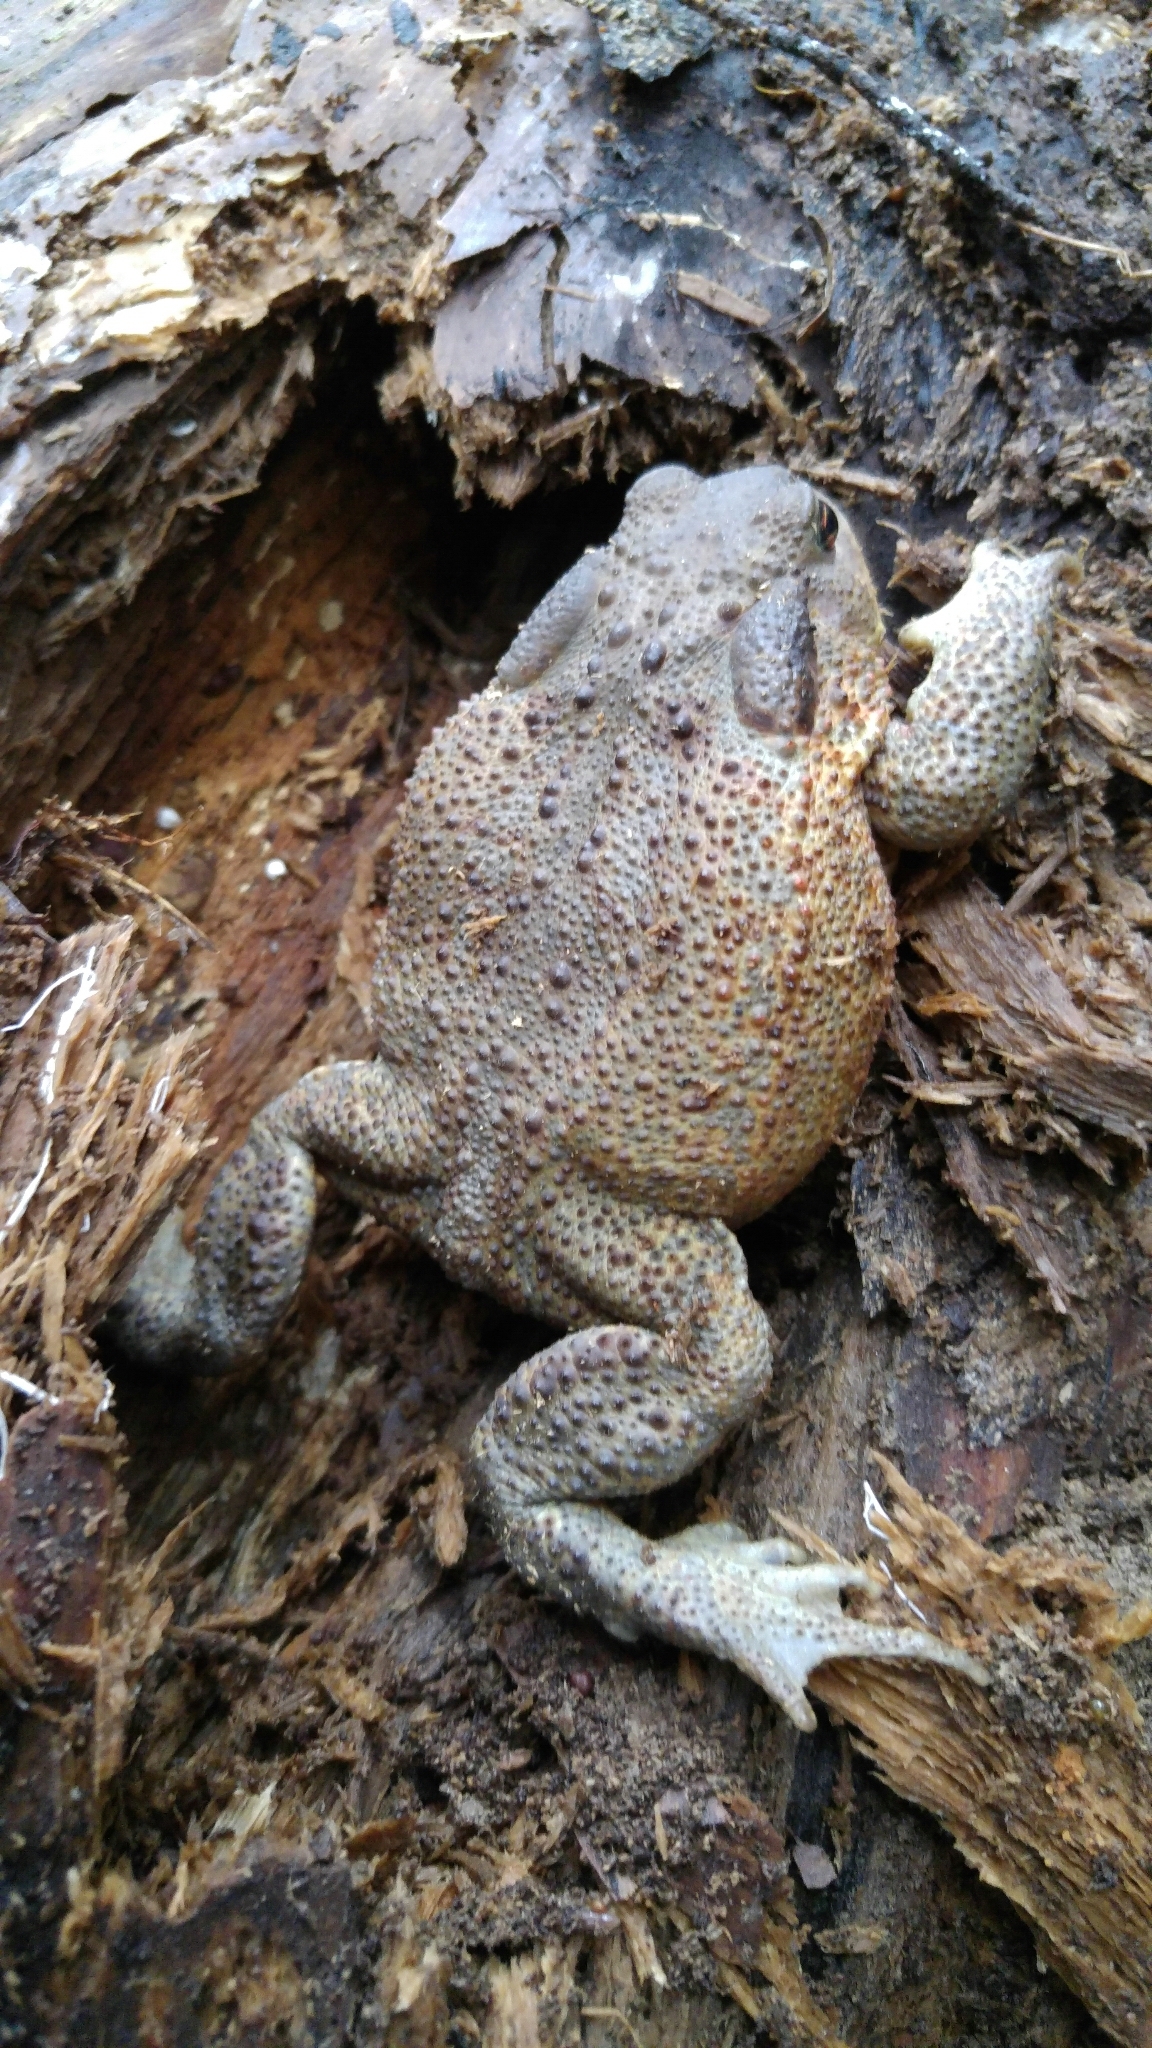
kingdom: Animalia
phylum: Chordata
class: Amphibia
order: Anura
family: Bufonidae
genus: Bufo
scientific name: Bufo bufo
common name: Common toad
